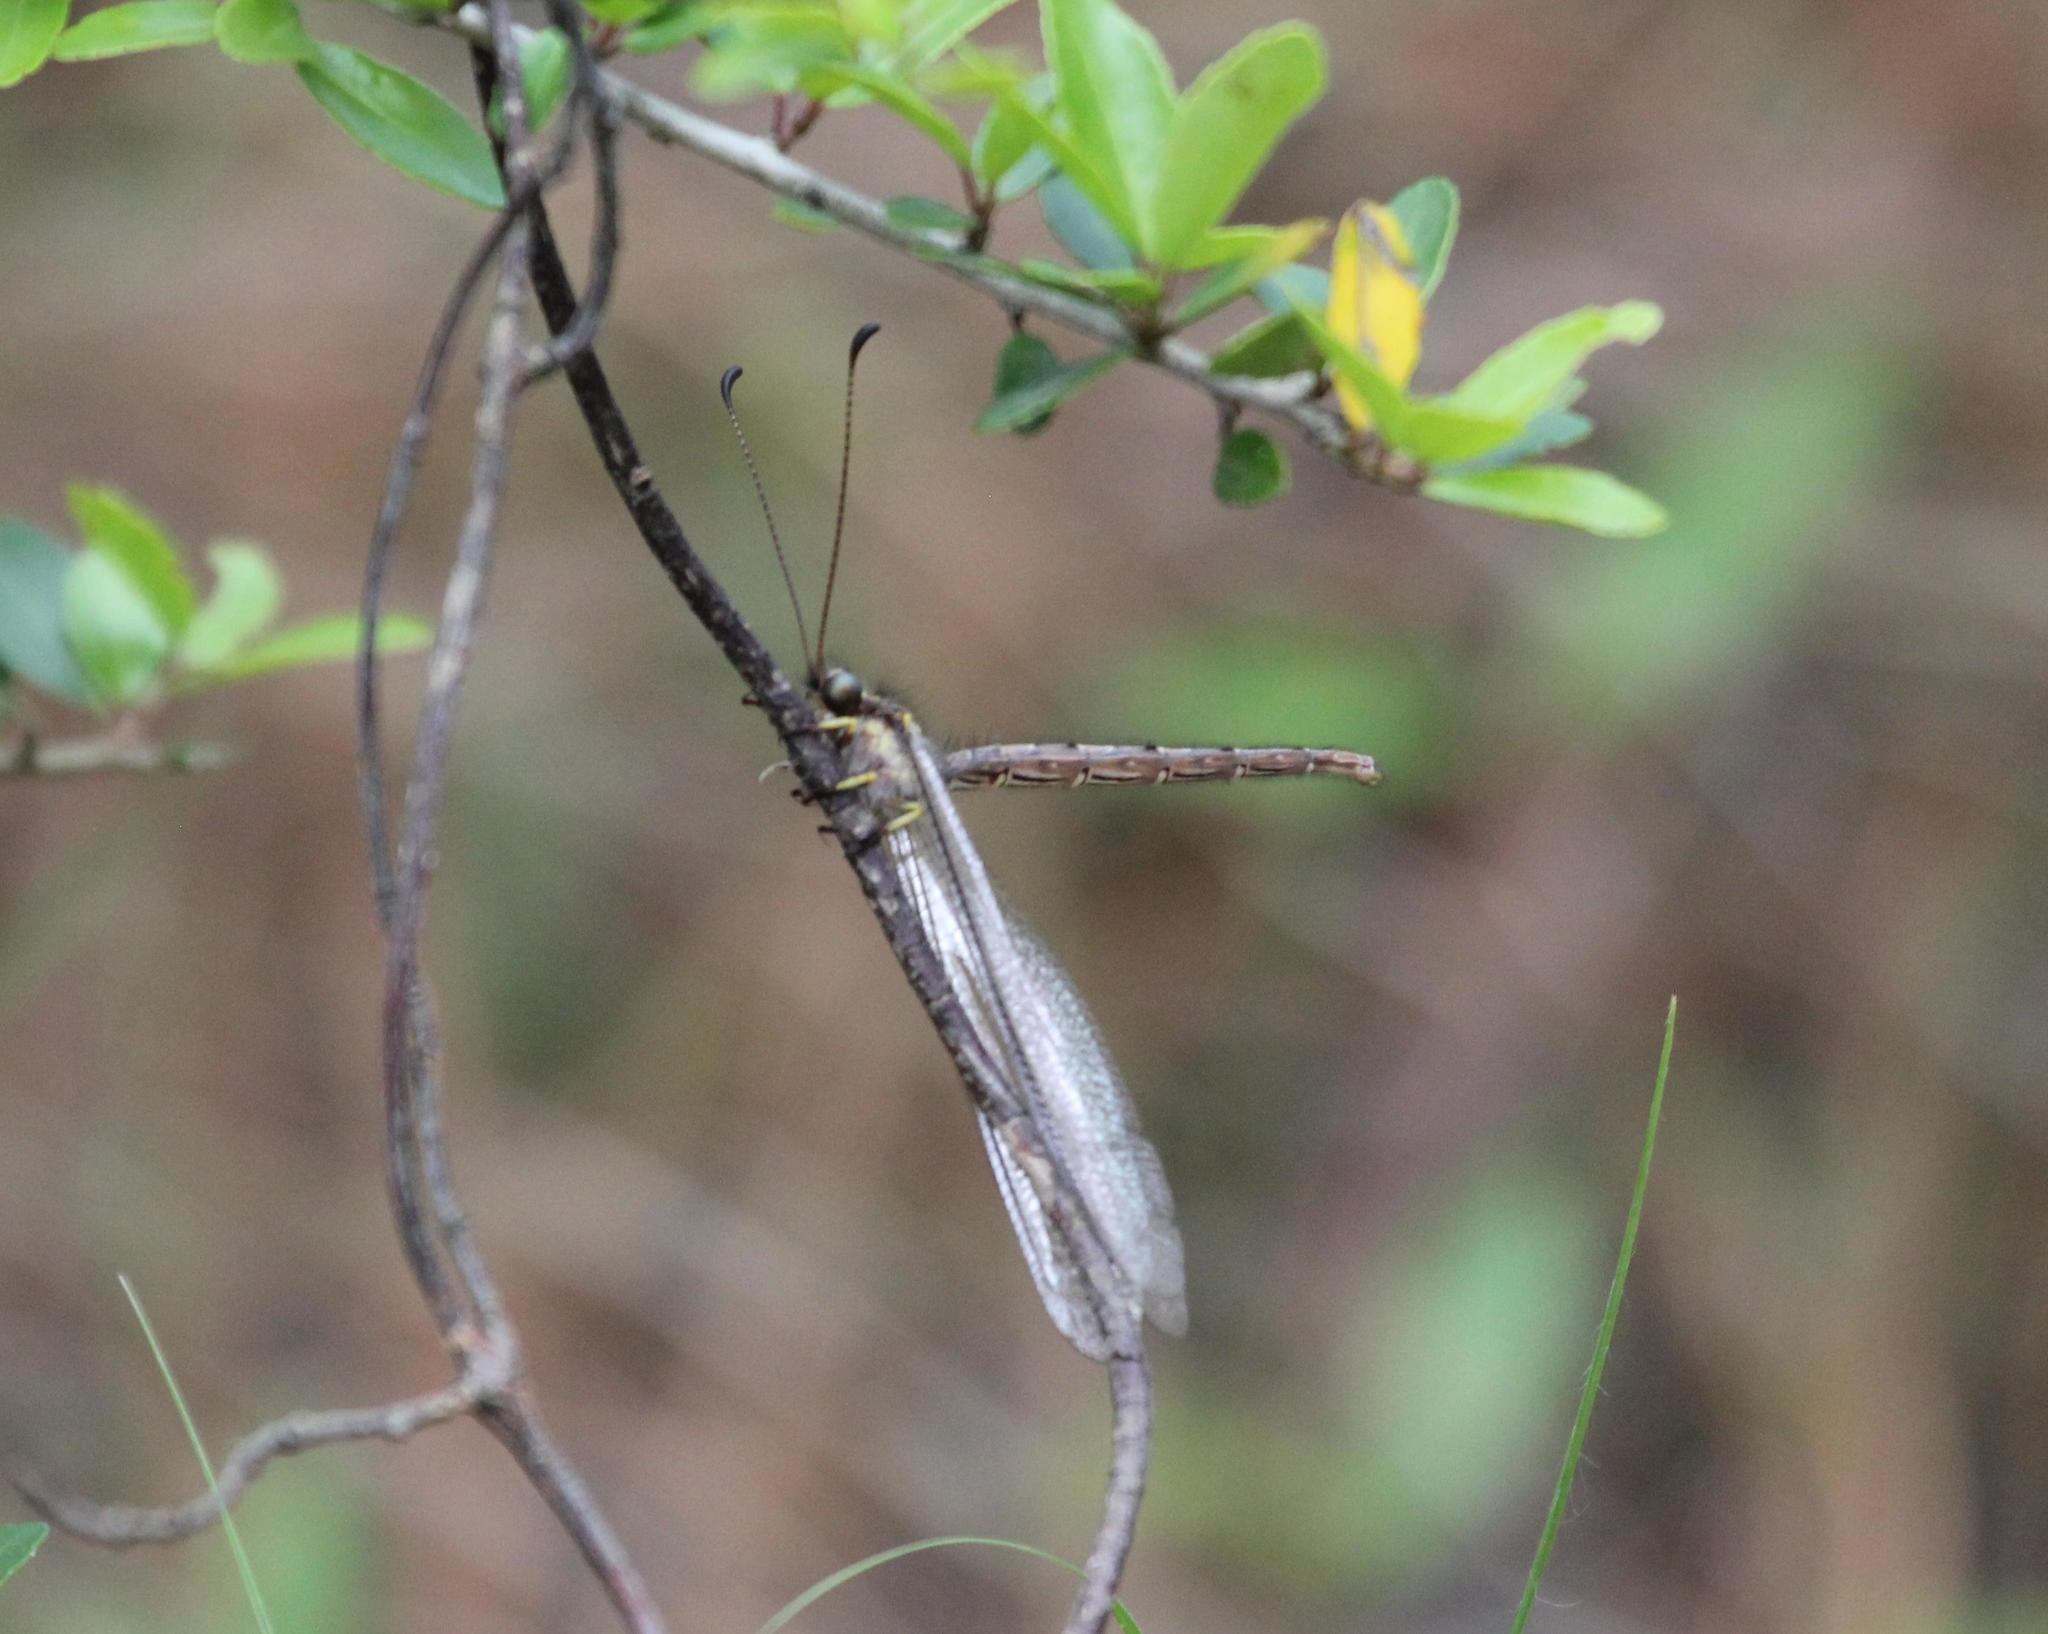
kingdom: Animalia
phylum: Arthropoda
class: Insecta
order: Neuroptera
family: Ascalaphidae
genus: Ascaloptynx
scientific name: Ascaloptynx appendiculata
